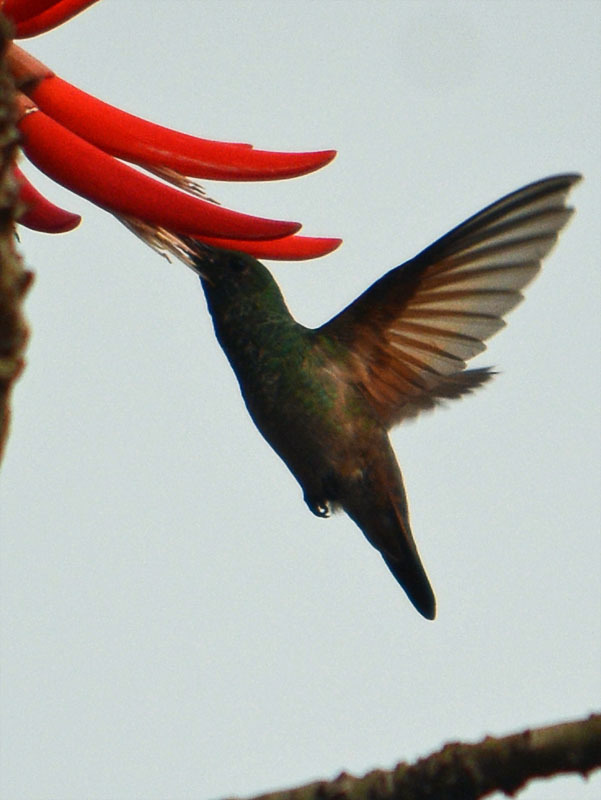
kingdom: Animalia
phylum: Chordata
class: Aves
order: Apodiformes
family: Trochilidae
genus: Saucerottia
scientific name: Saucerottia beryllina
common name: Berylline hummingbird
